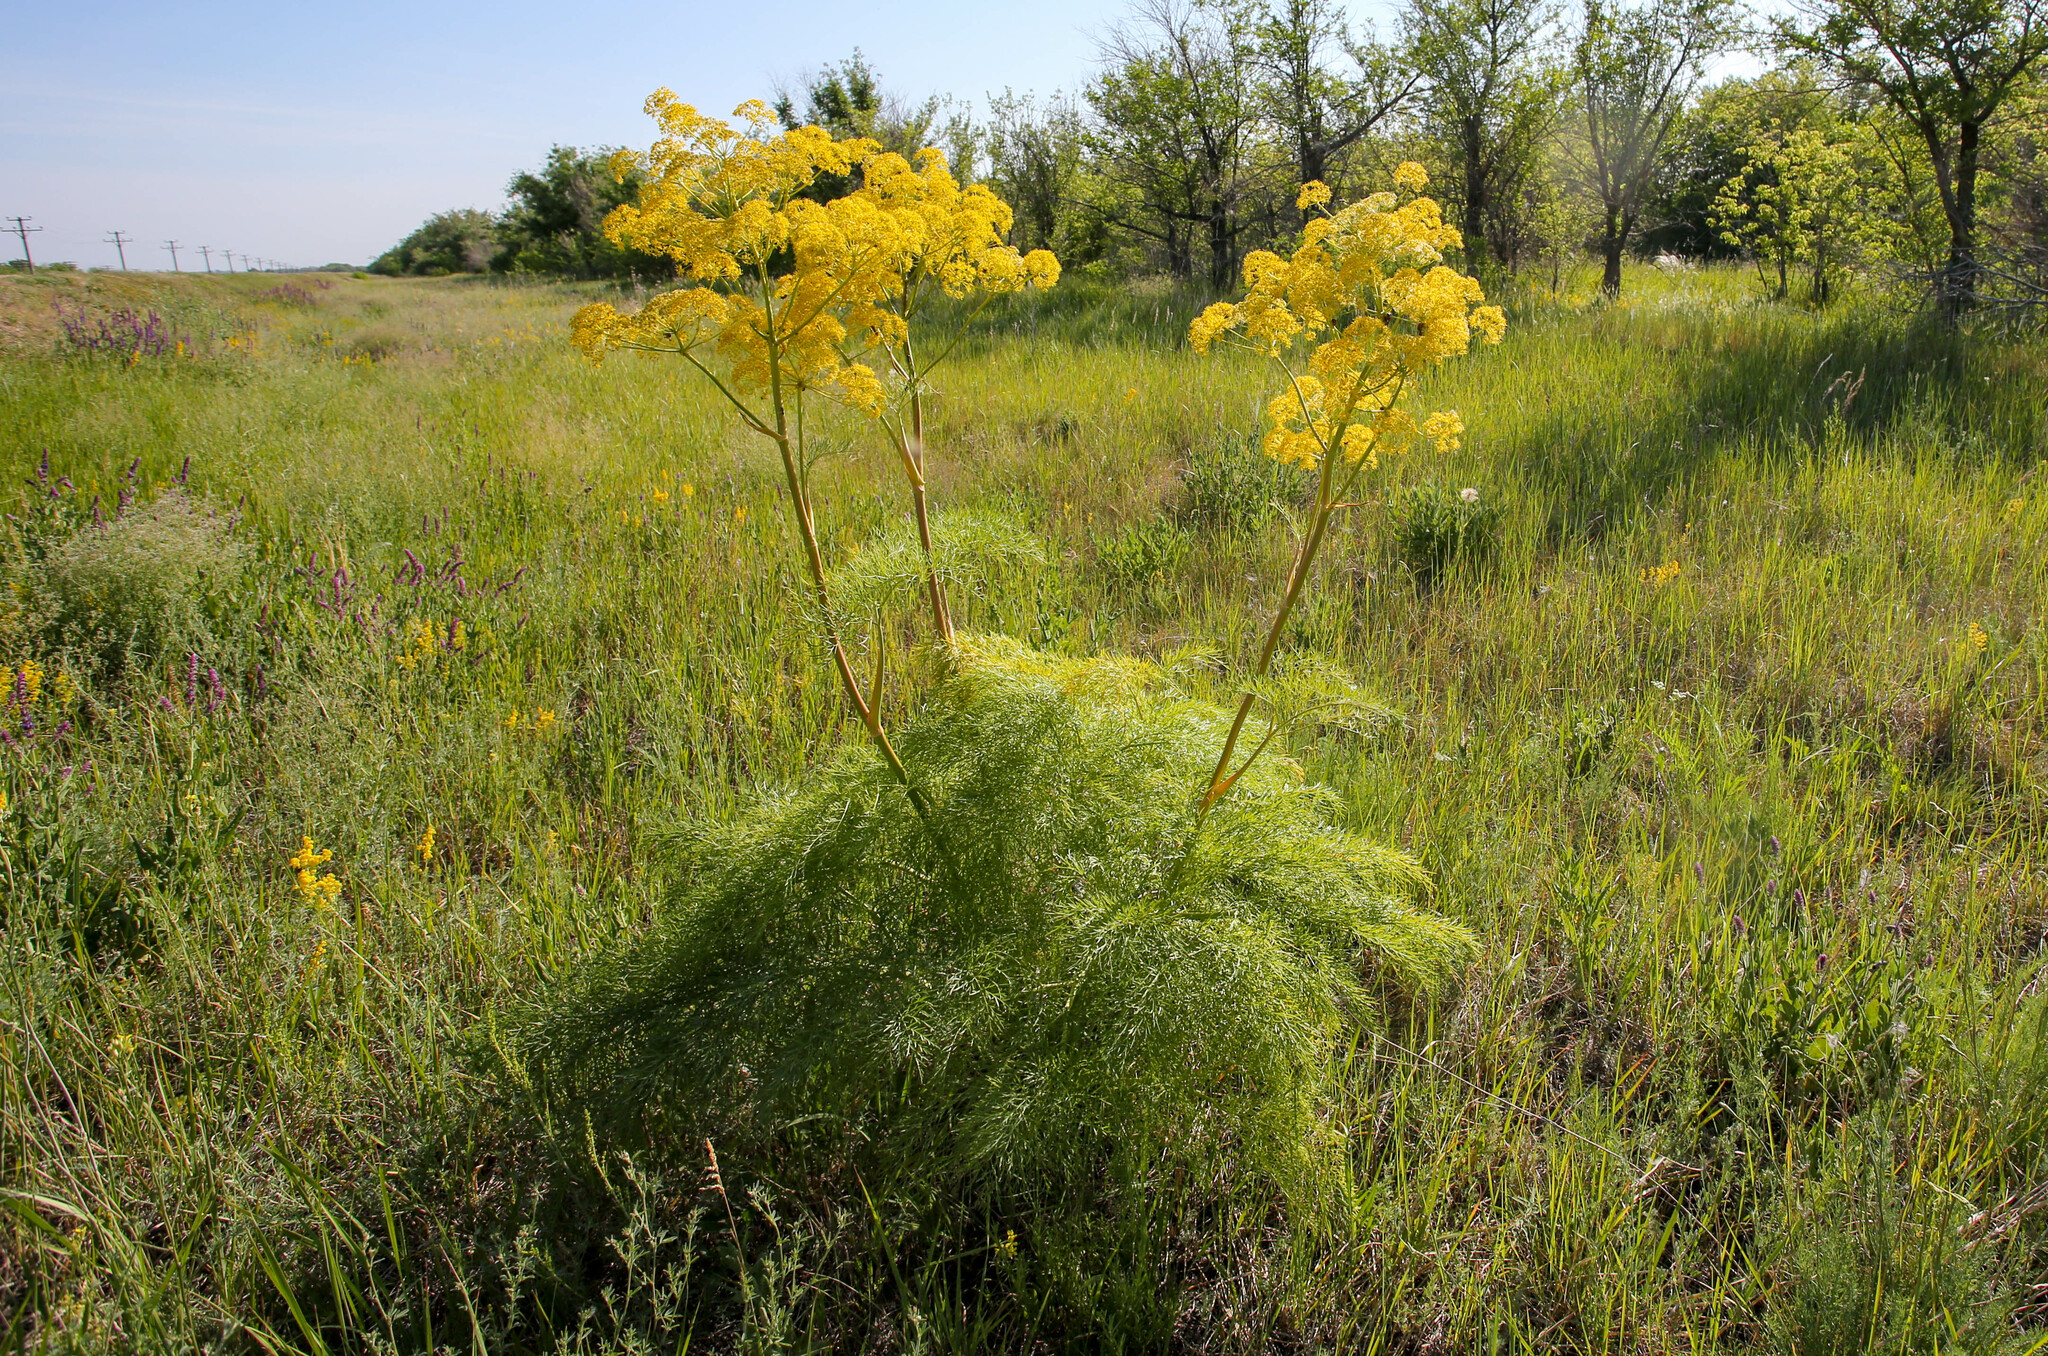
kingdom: Plantae
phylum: Tracheophyta
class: Magnoliopsida
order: Apiales
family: Apiaceae
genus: Ferula
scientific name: Ferula songarica
